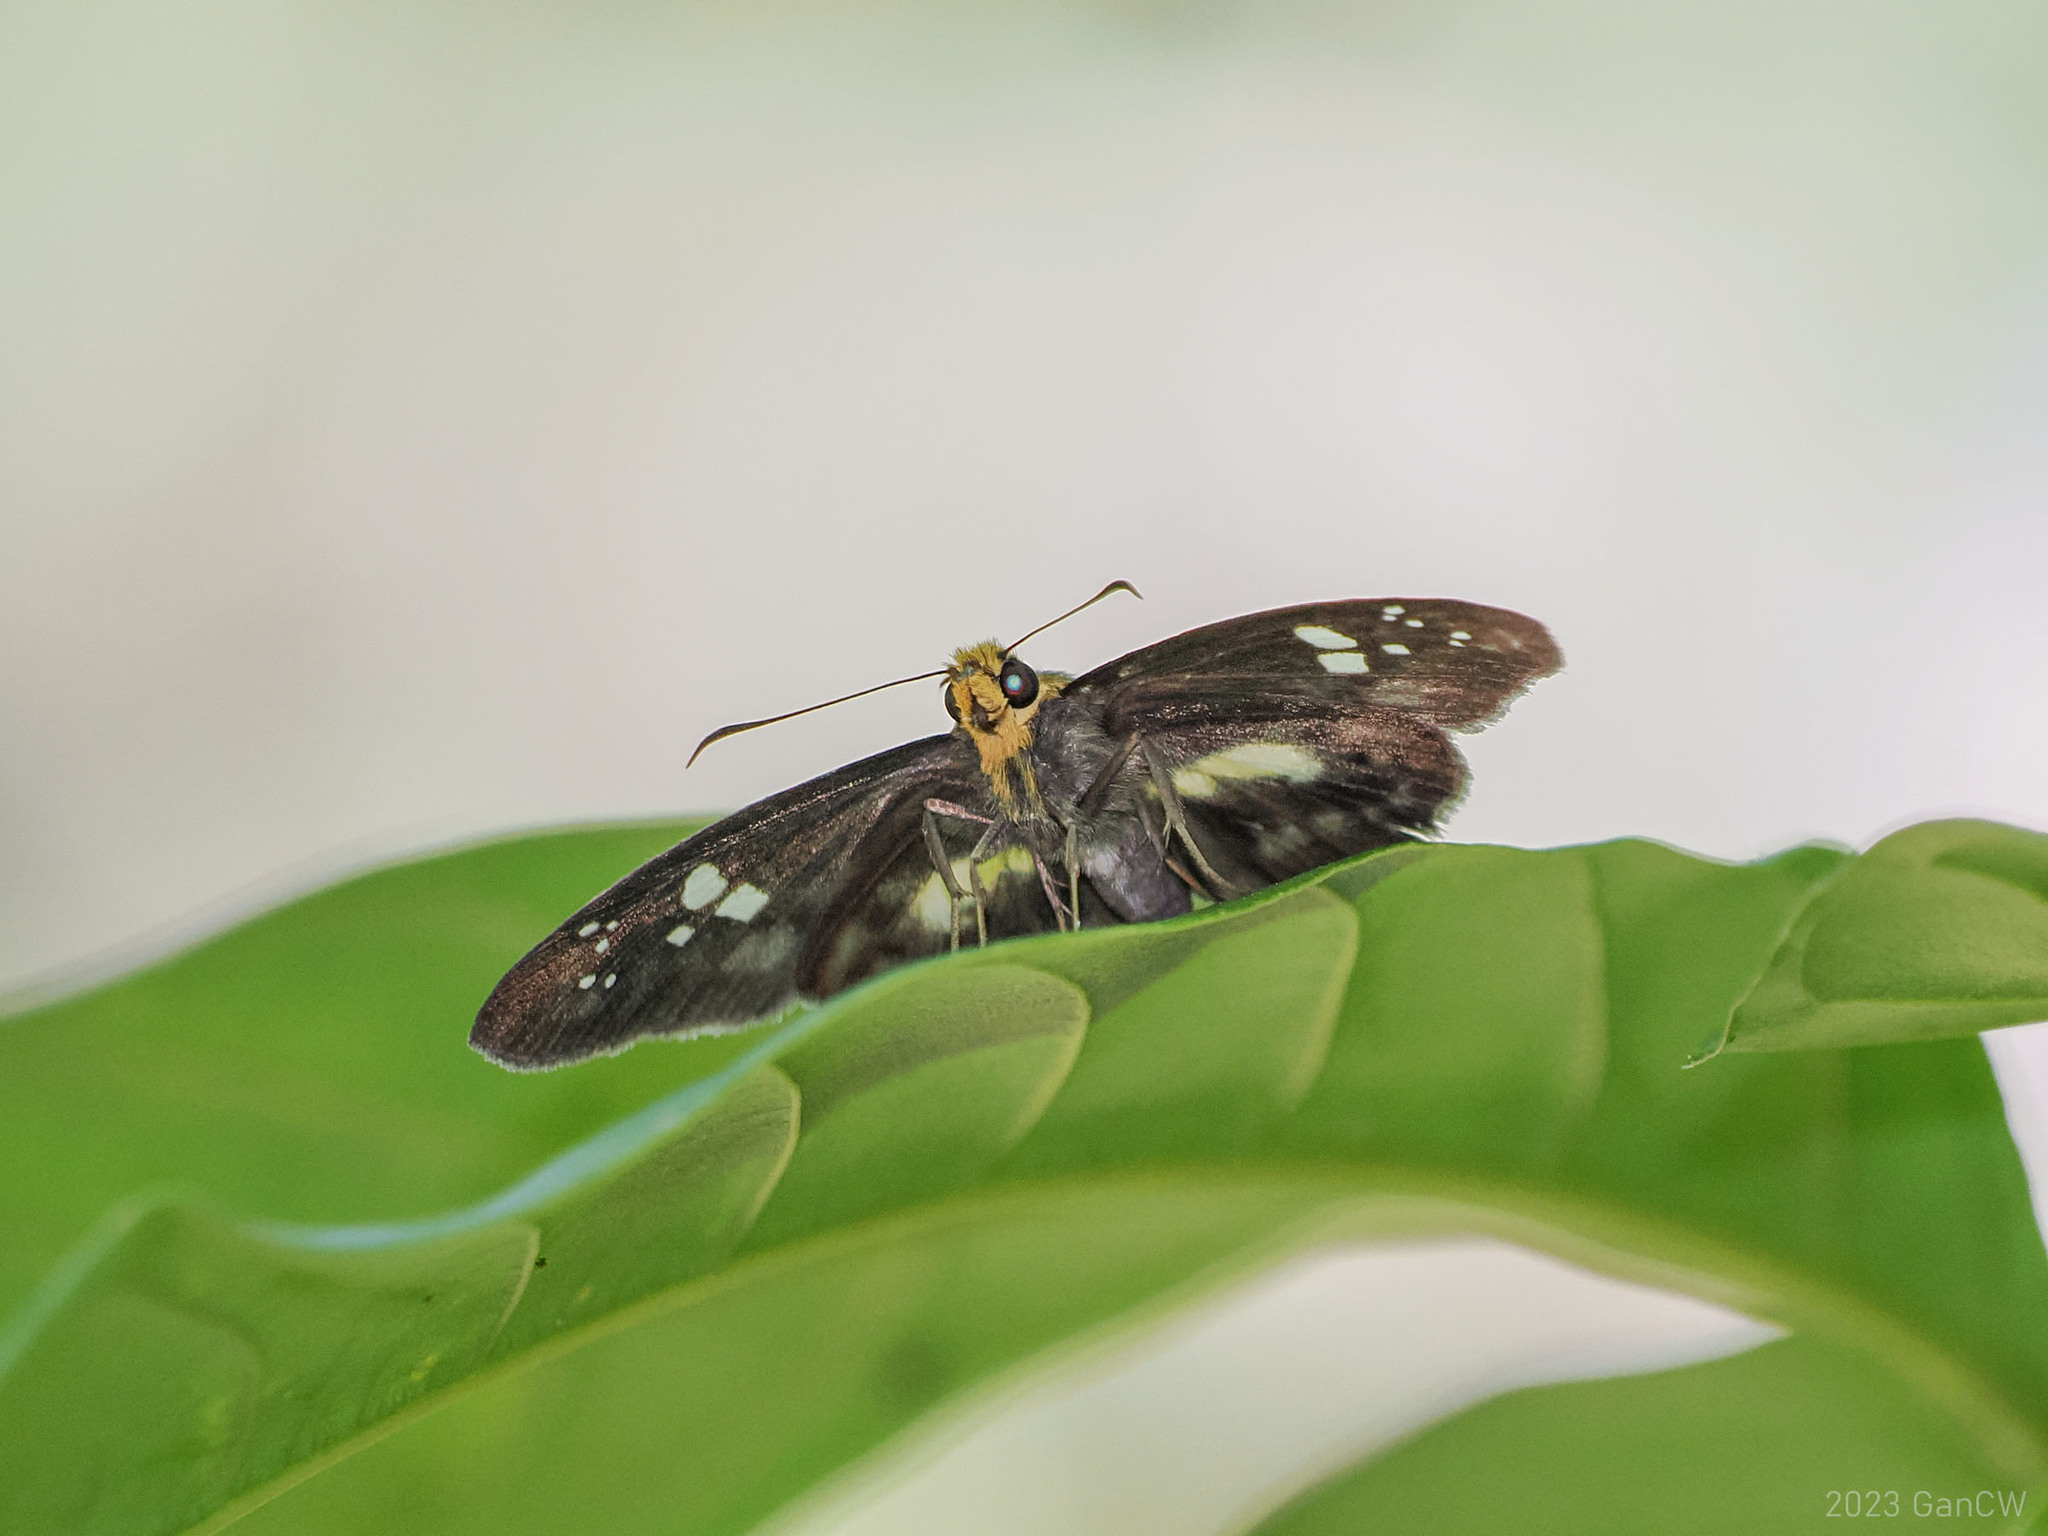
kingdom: Animalia
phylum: Arthropoda
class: Insecta
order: Lepidoptera
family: Hesperiidae
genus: Daimio
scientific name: Daimio
